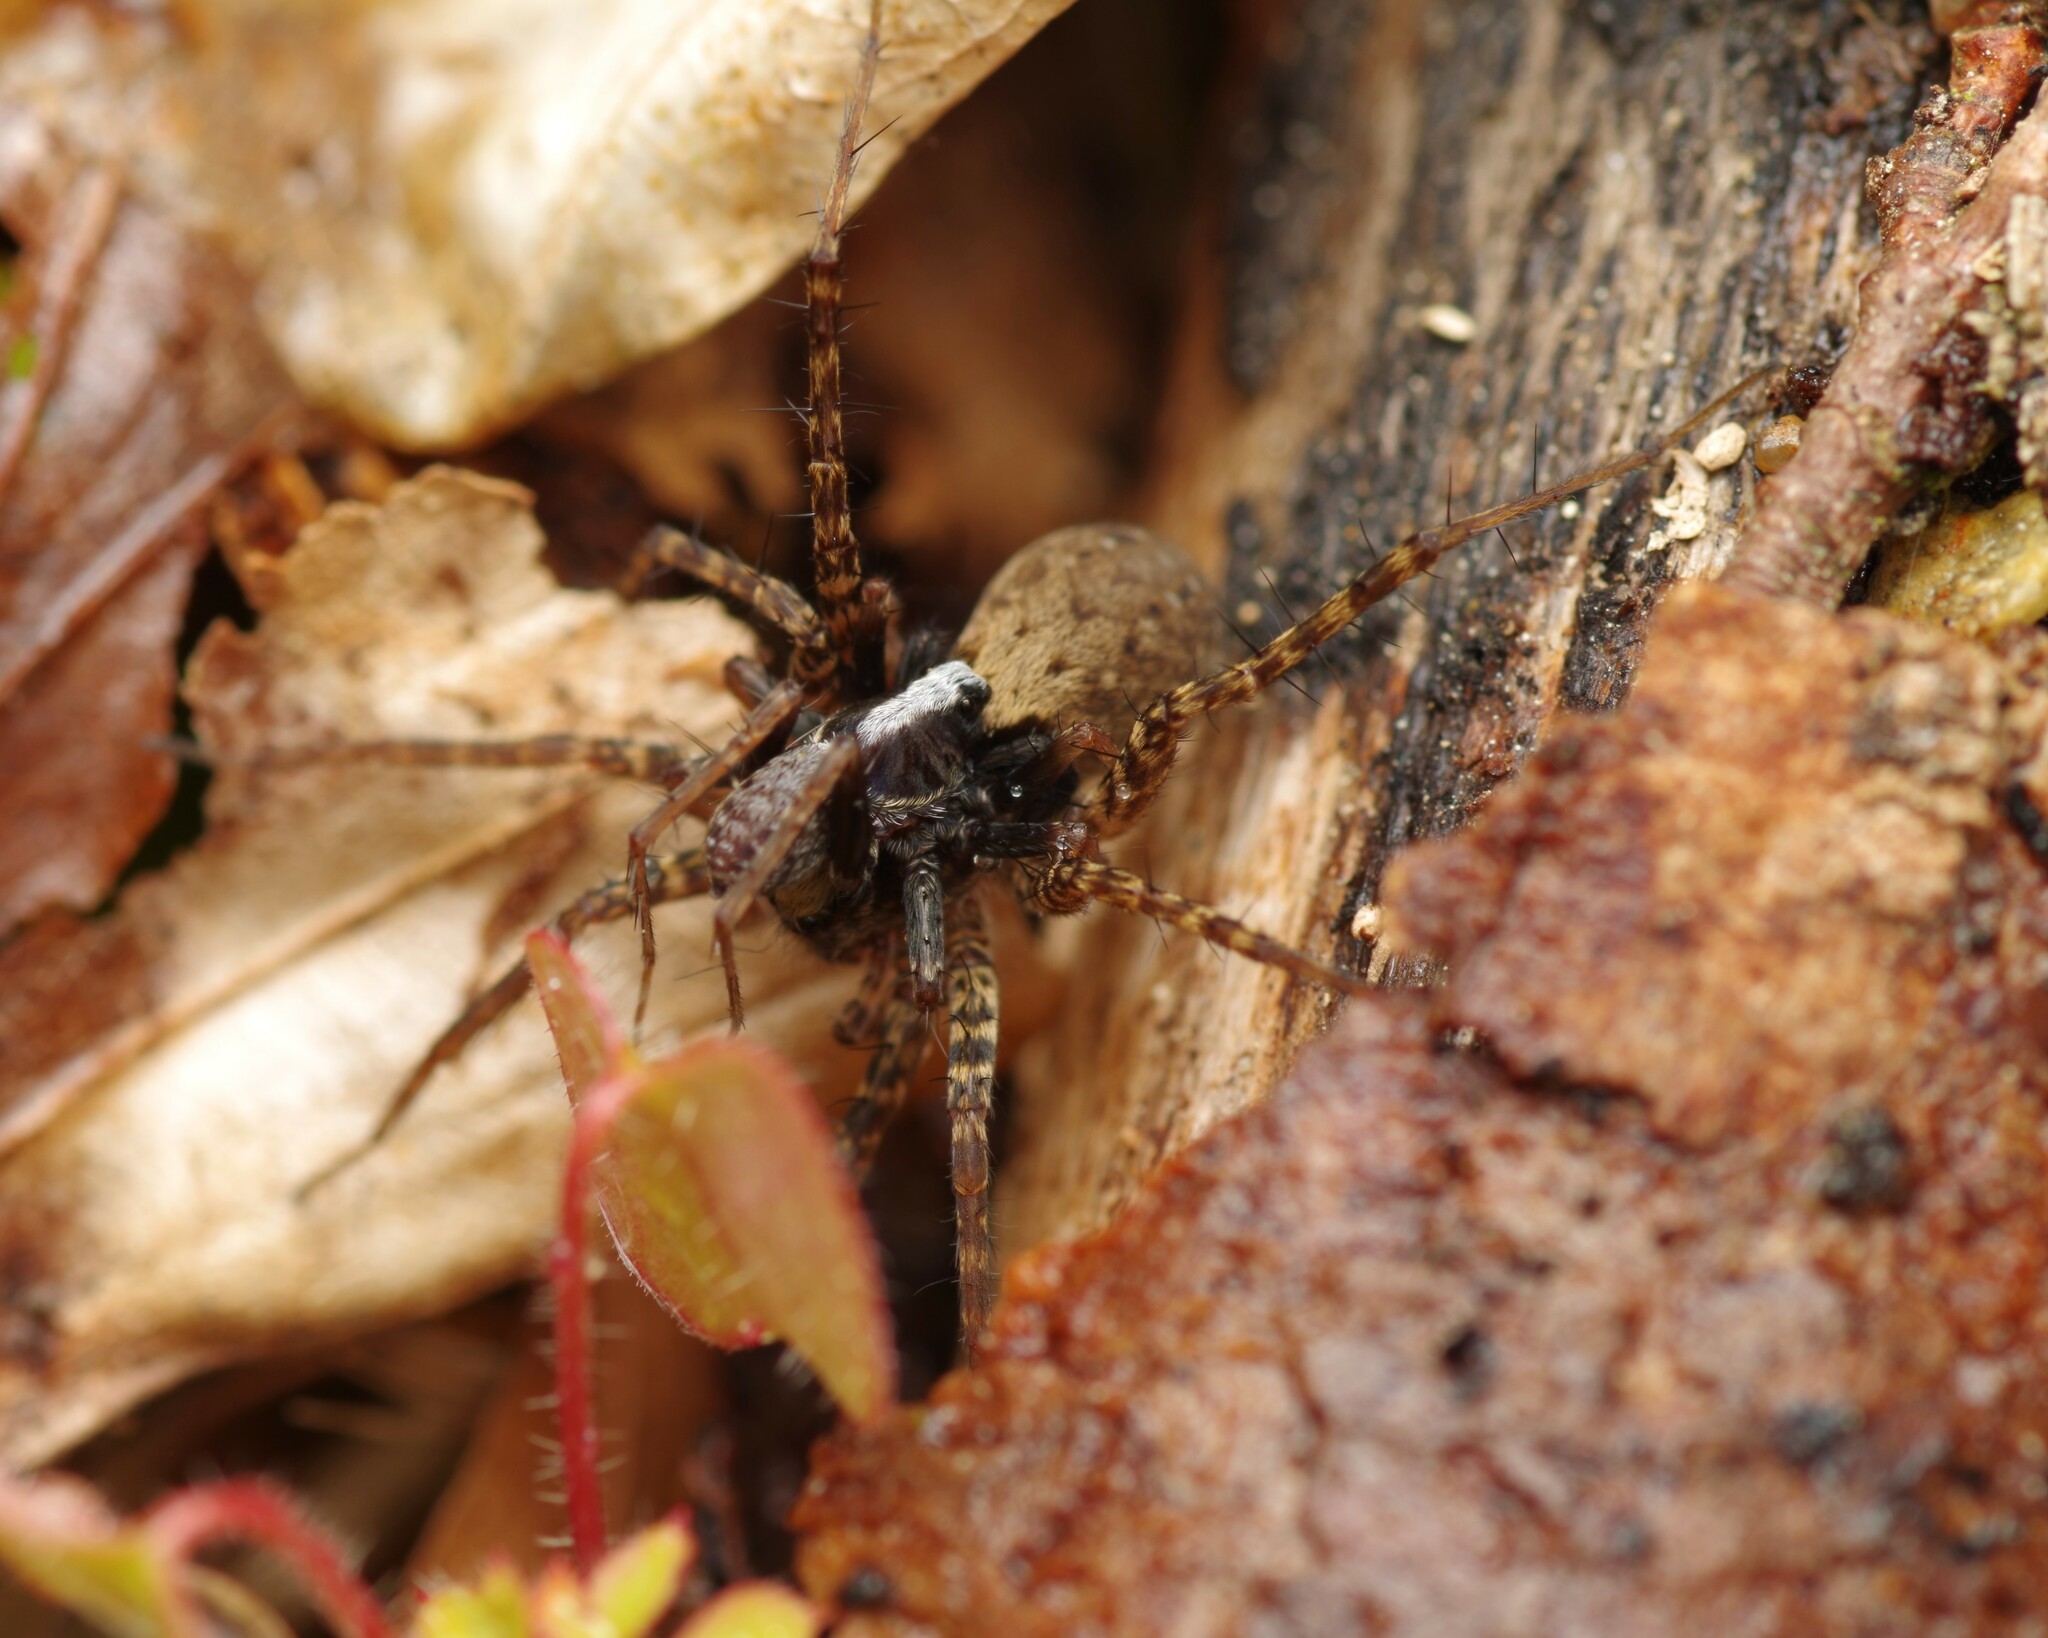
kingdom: Animalia
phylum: Arthropoda
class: Arachnida
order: Araneae
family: Lycosidae
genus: Pardosa
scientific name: Pardosa
